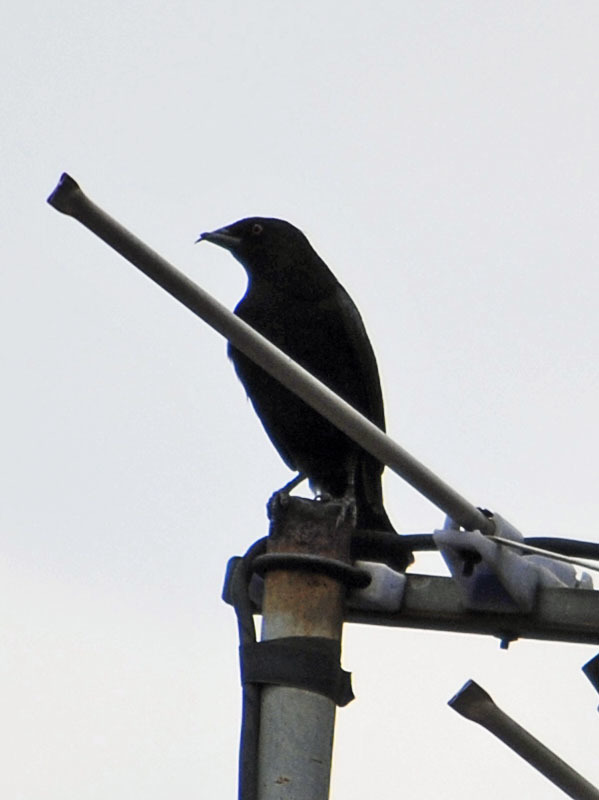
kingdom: Animalia
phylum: Chordata
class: Aves
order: Passeriformes
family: Icteridae
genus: Molothrus
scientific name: Molothrus aeneus
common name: Bronzed cowbird
